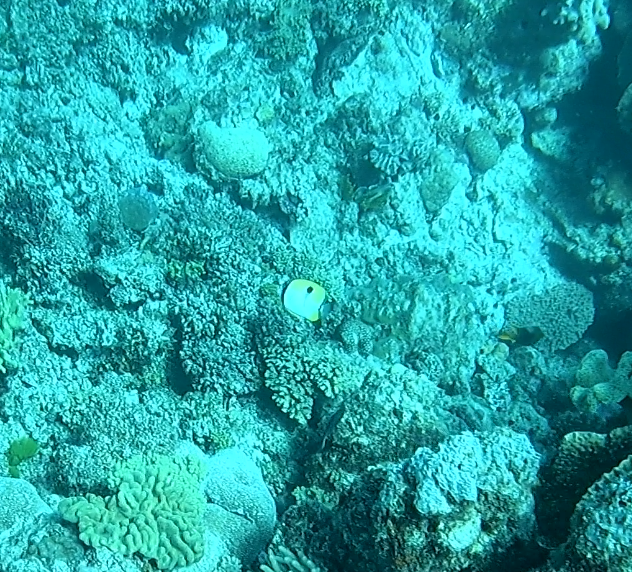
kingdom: Animalia
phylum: Chordata
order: Perciformes
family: Chaetodontidae
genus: Chaetodon
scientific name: Chaetodon unimaculatus
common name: Teardrop butterflyfish
